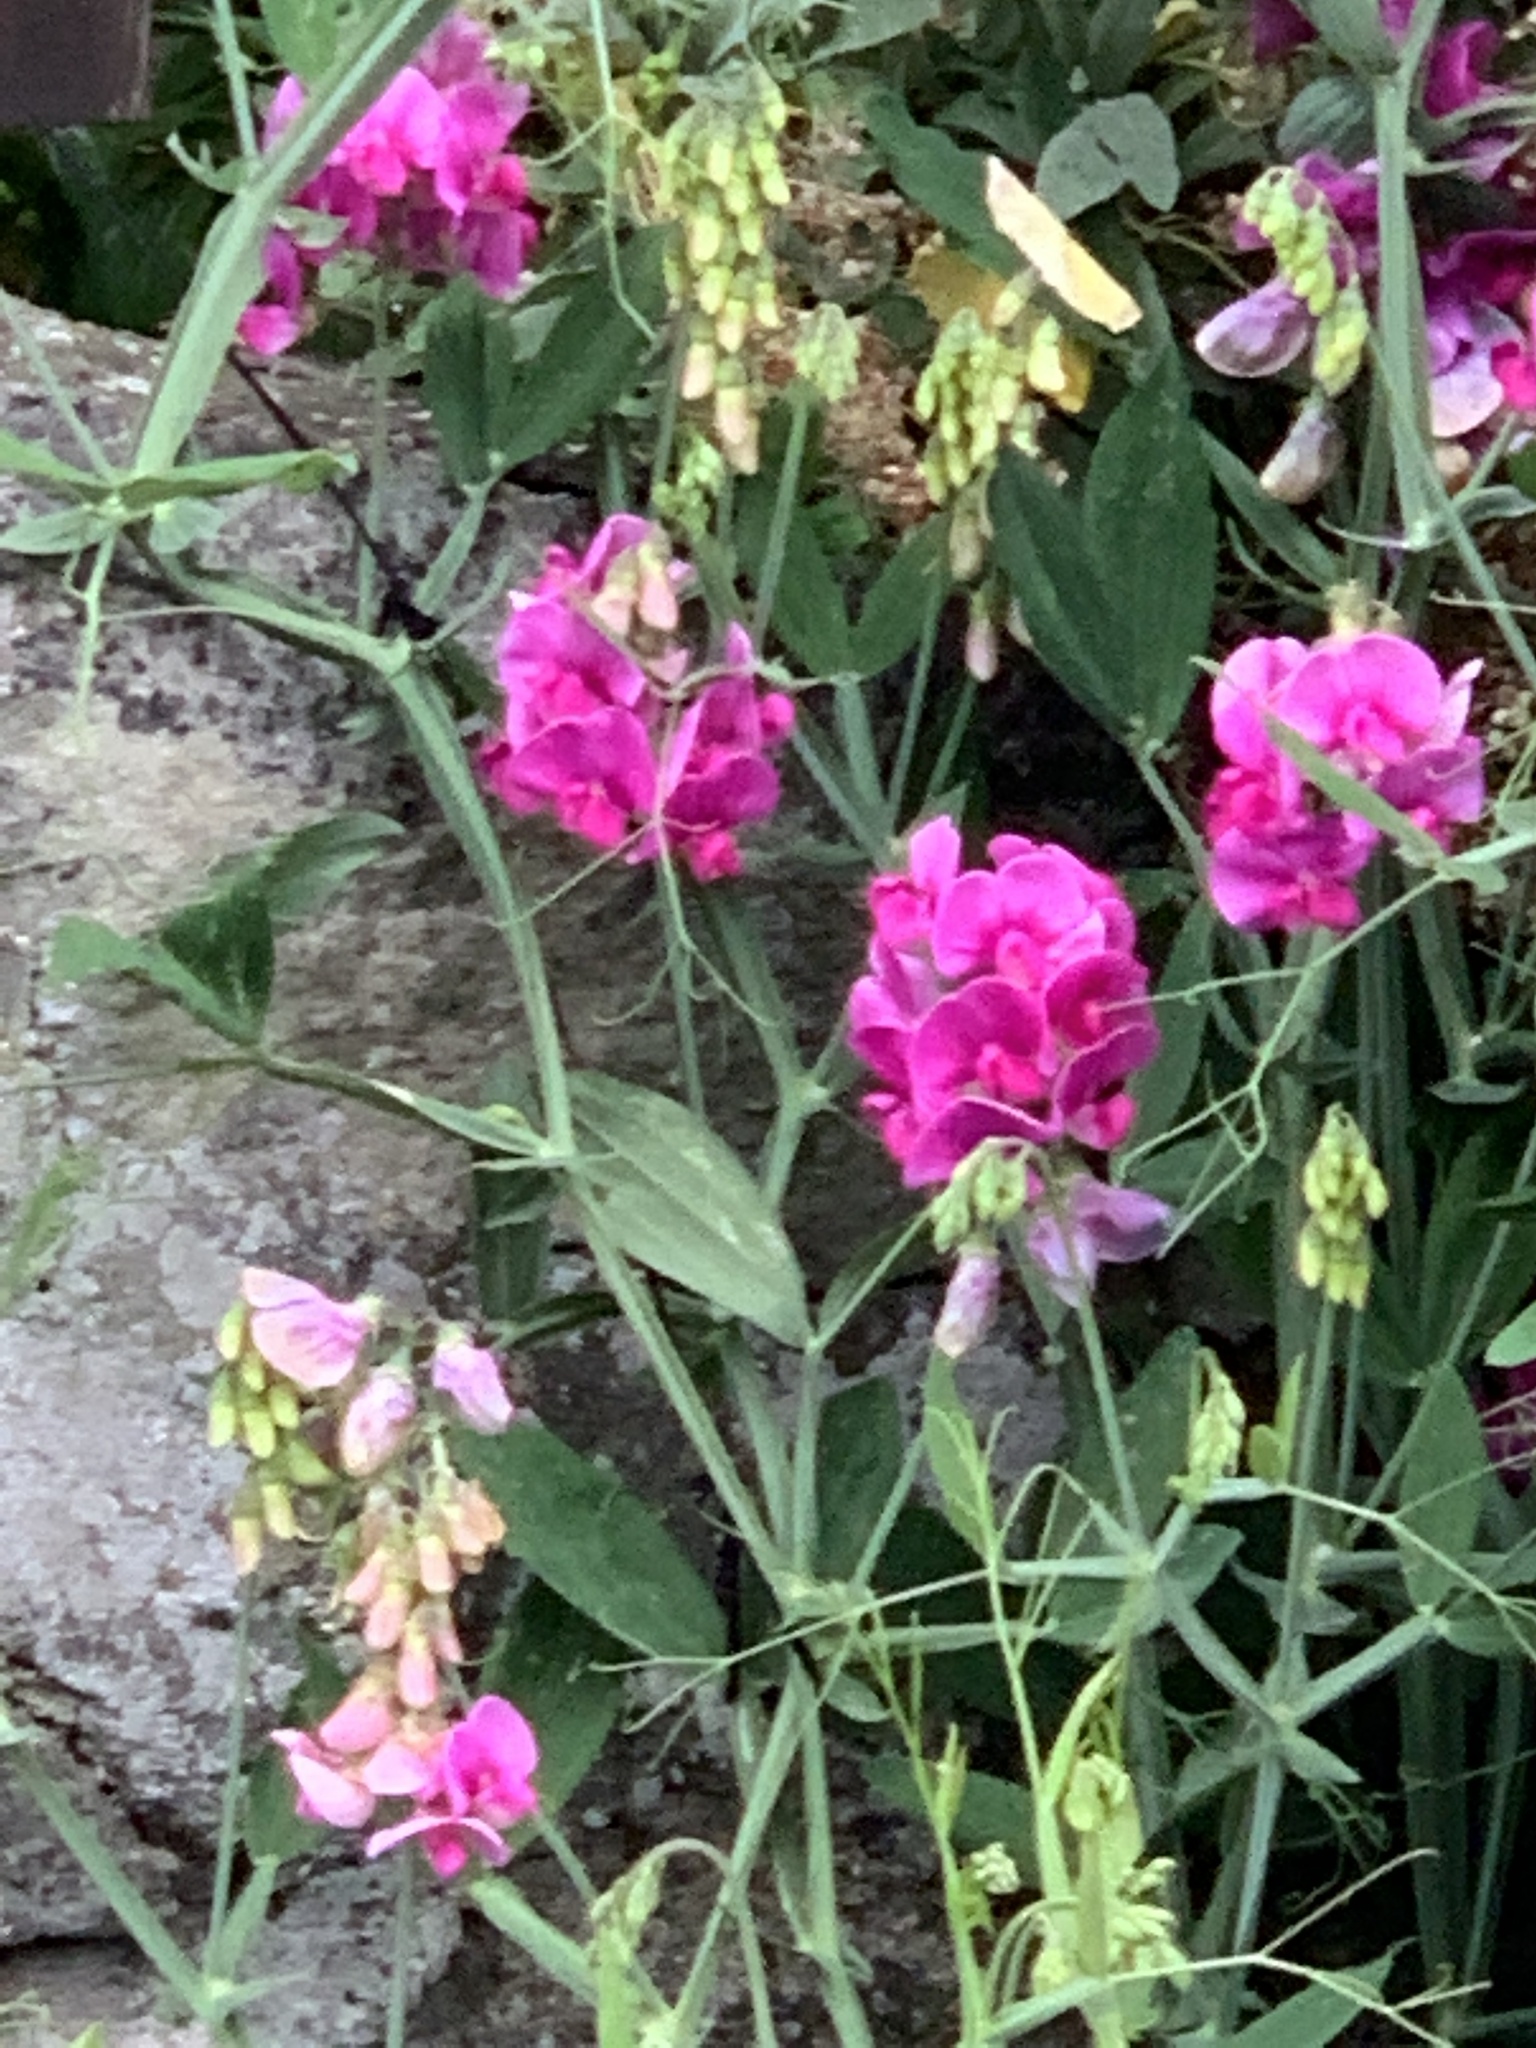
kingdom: Plantae
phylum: Tracheophyta
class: Magnoliopsida
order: Fabales
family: Fabaceae
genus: Lathyrus
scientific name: Lathyrus latifolius
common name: Perennial pea
